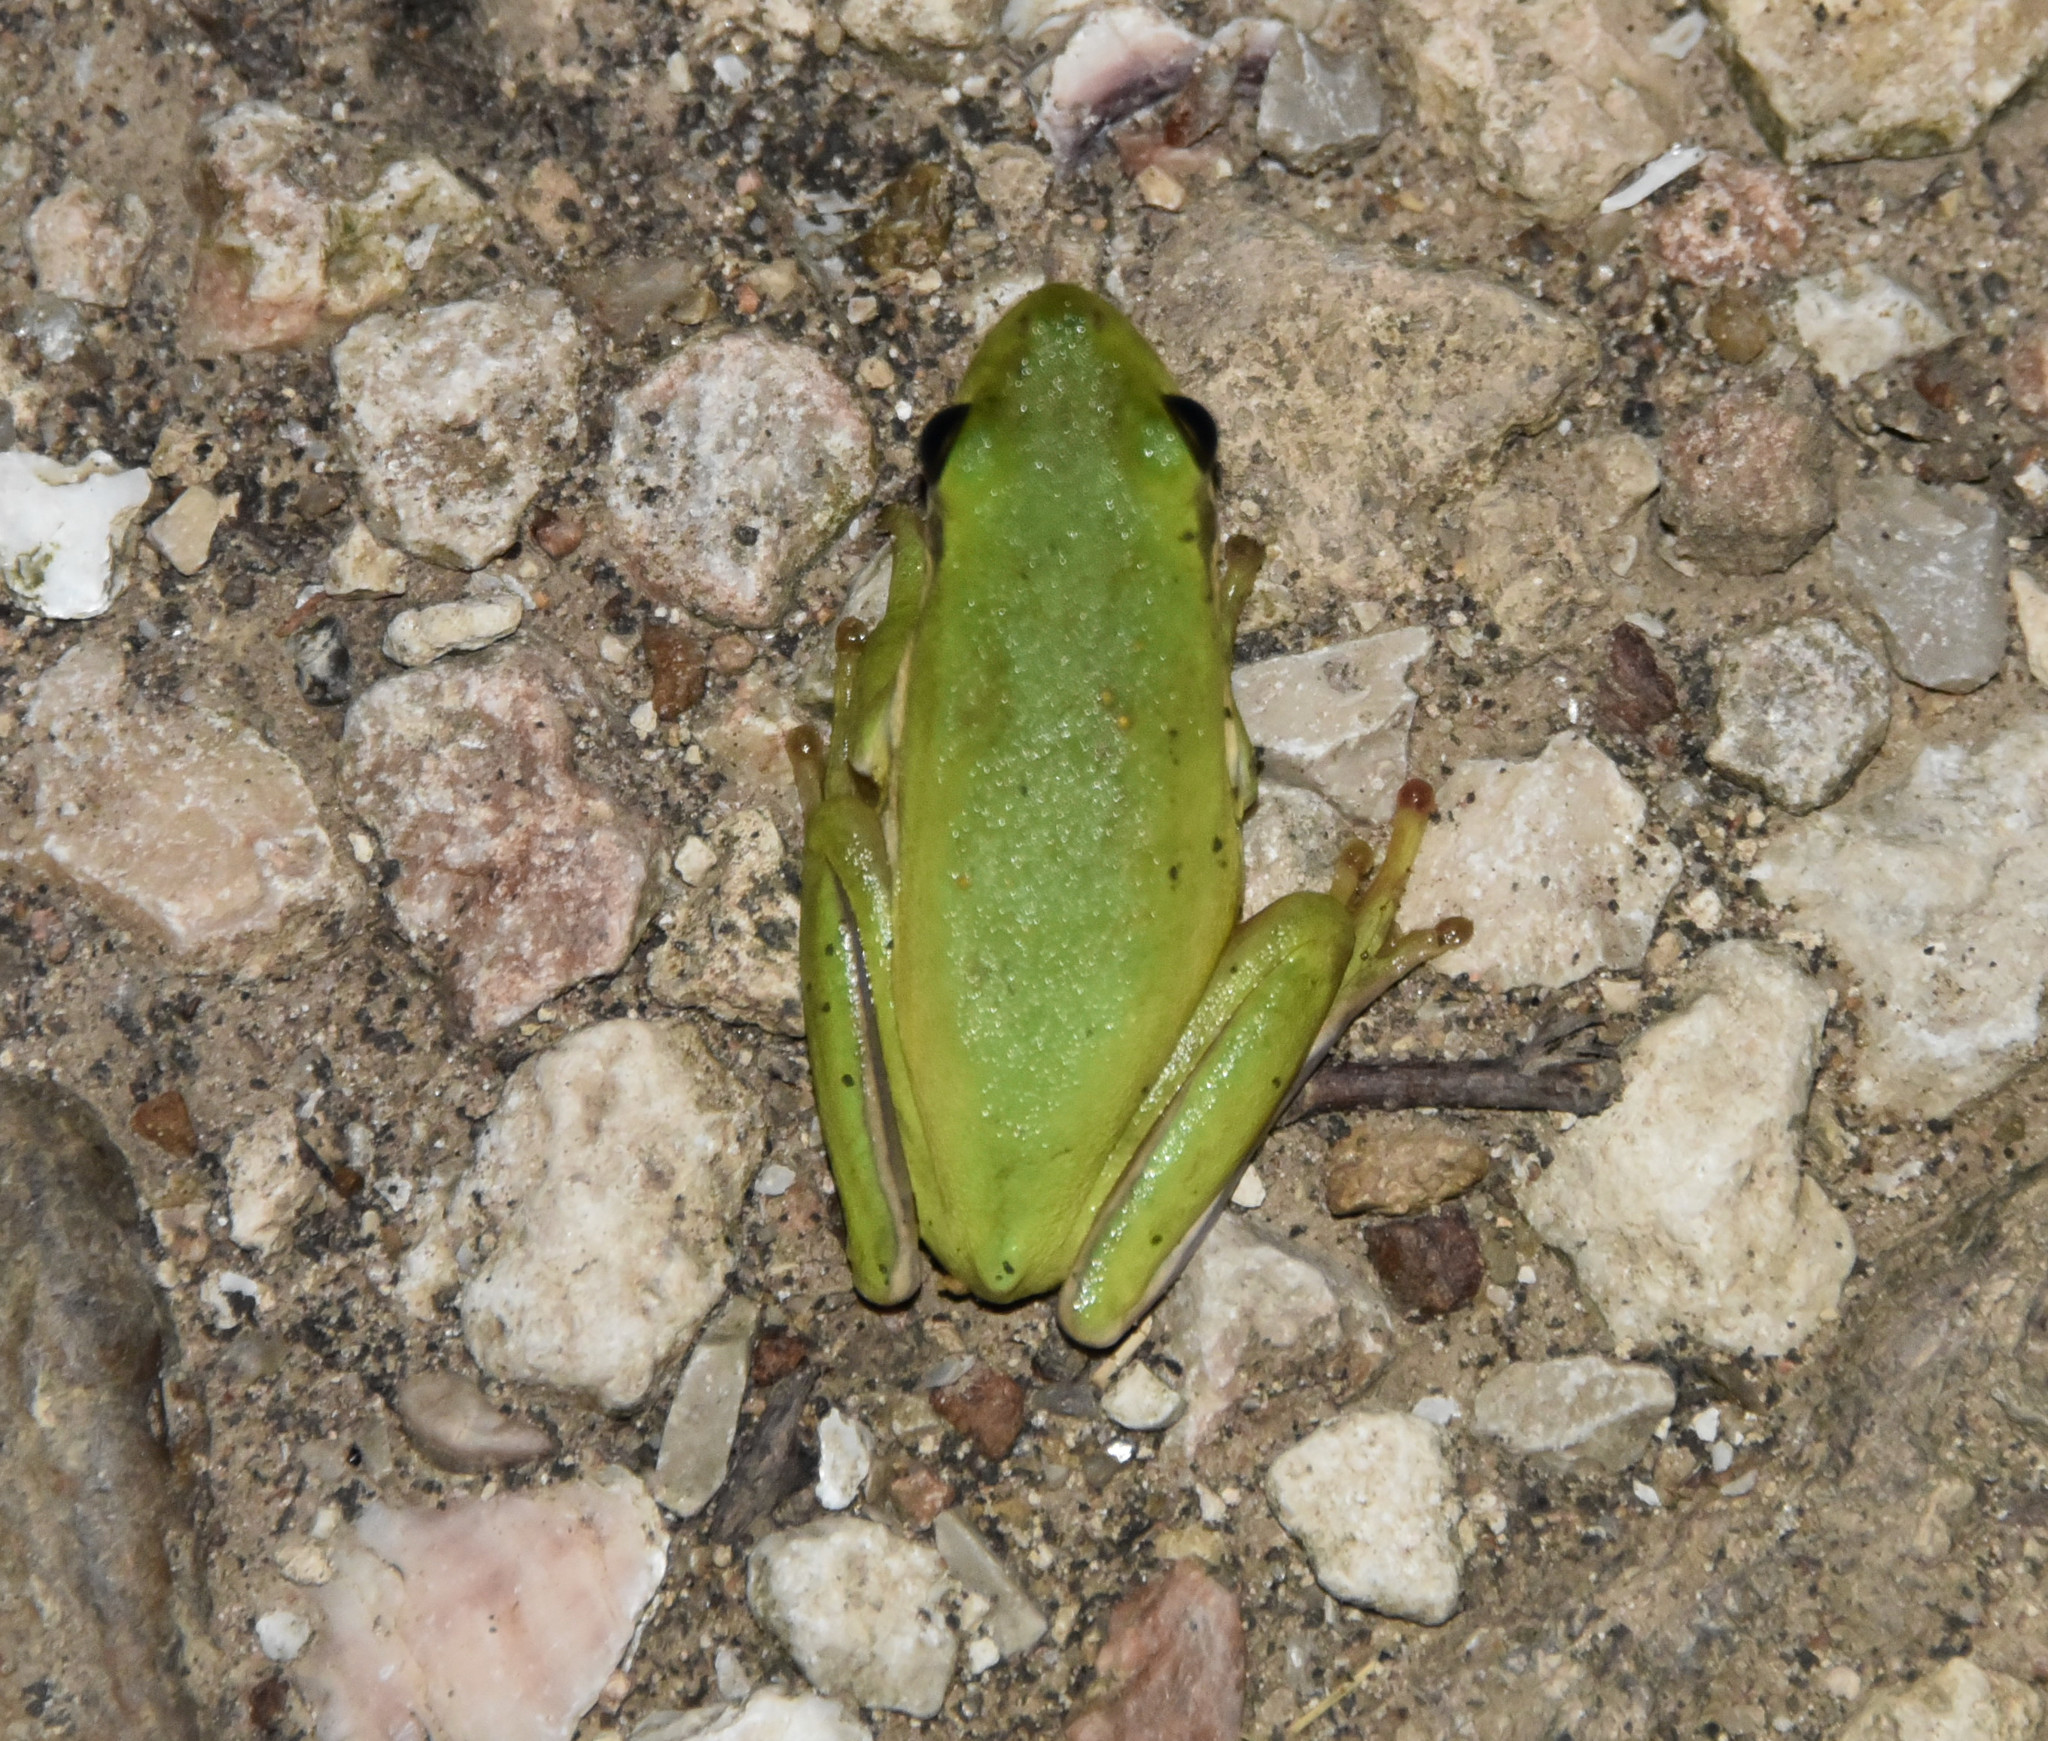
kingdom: Animalia
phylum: Chordata
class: Amphibia
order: Anura
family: Hylidae
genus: Dryophytes
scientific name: Dryophytes cinereus
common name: Green treefrog
